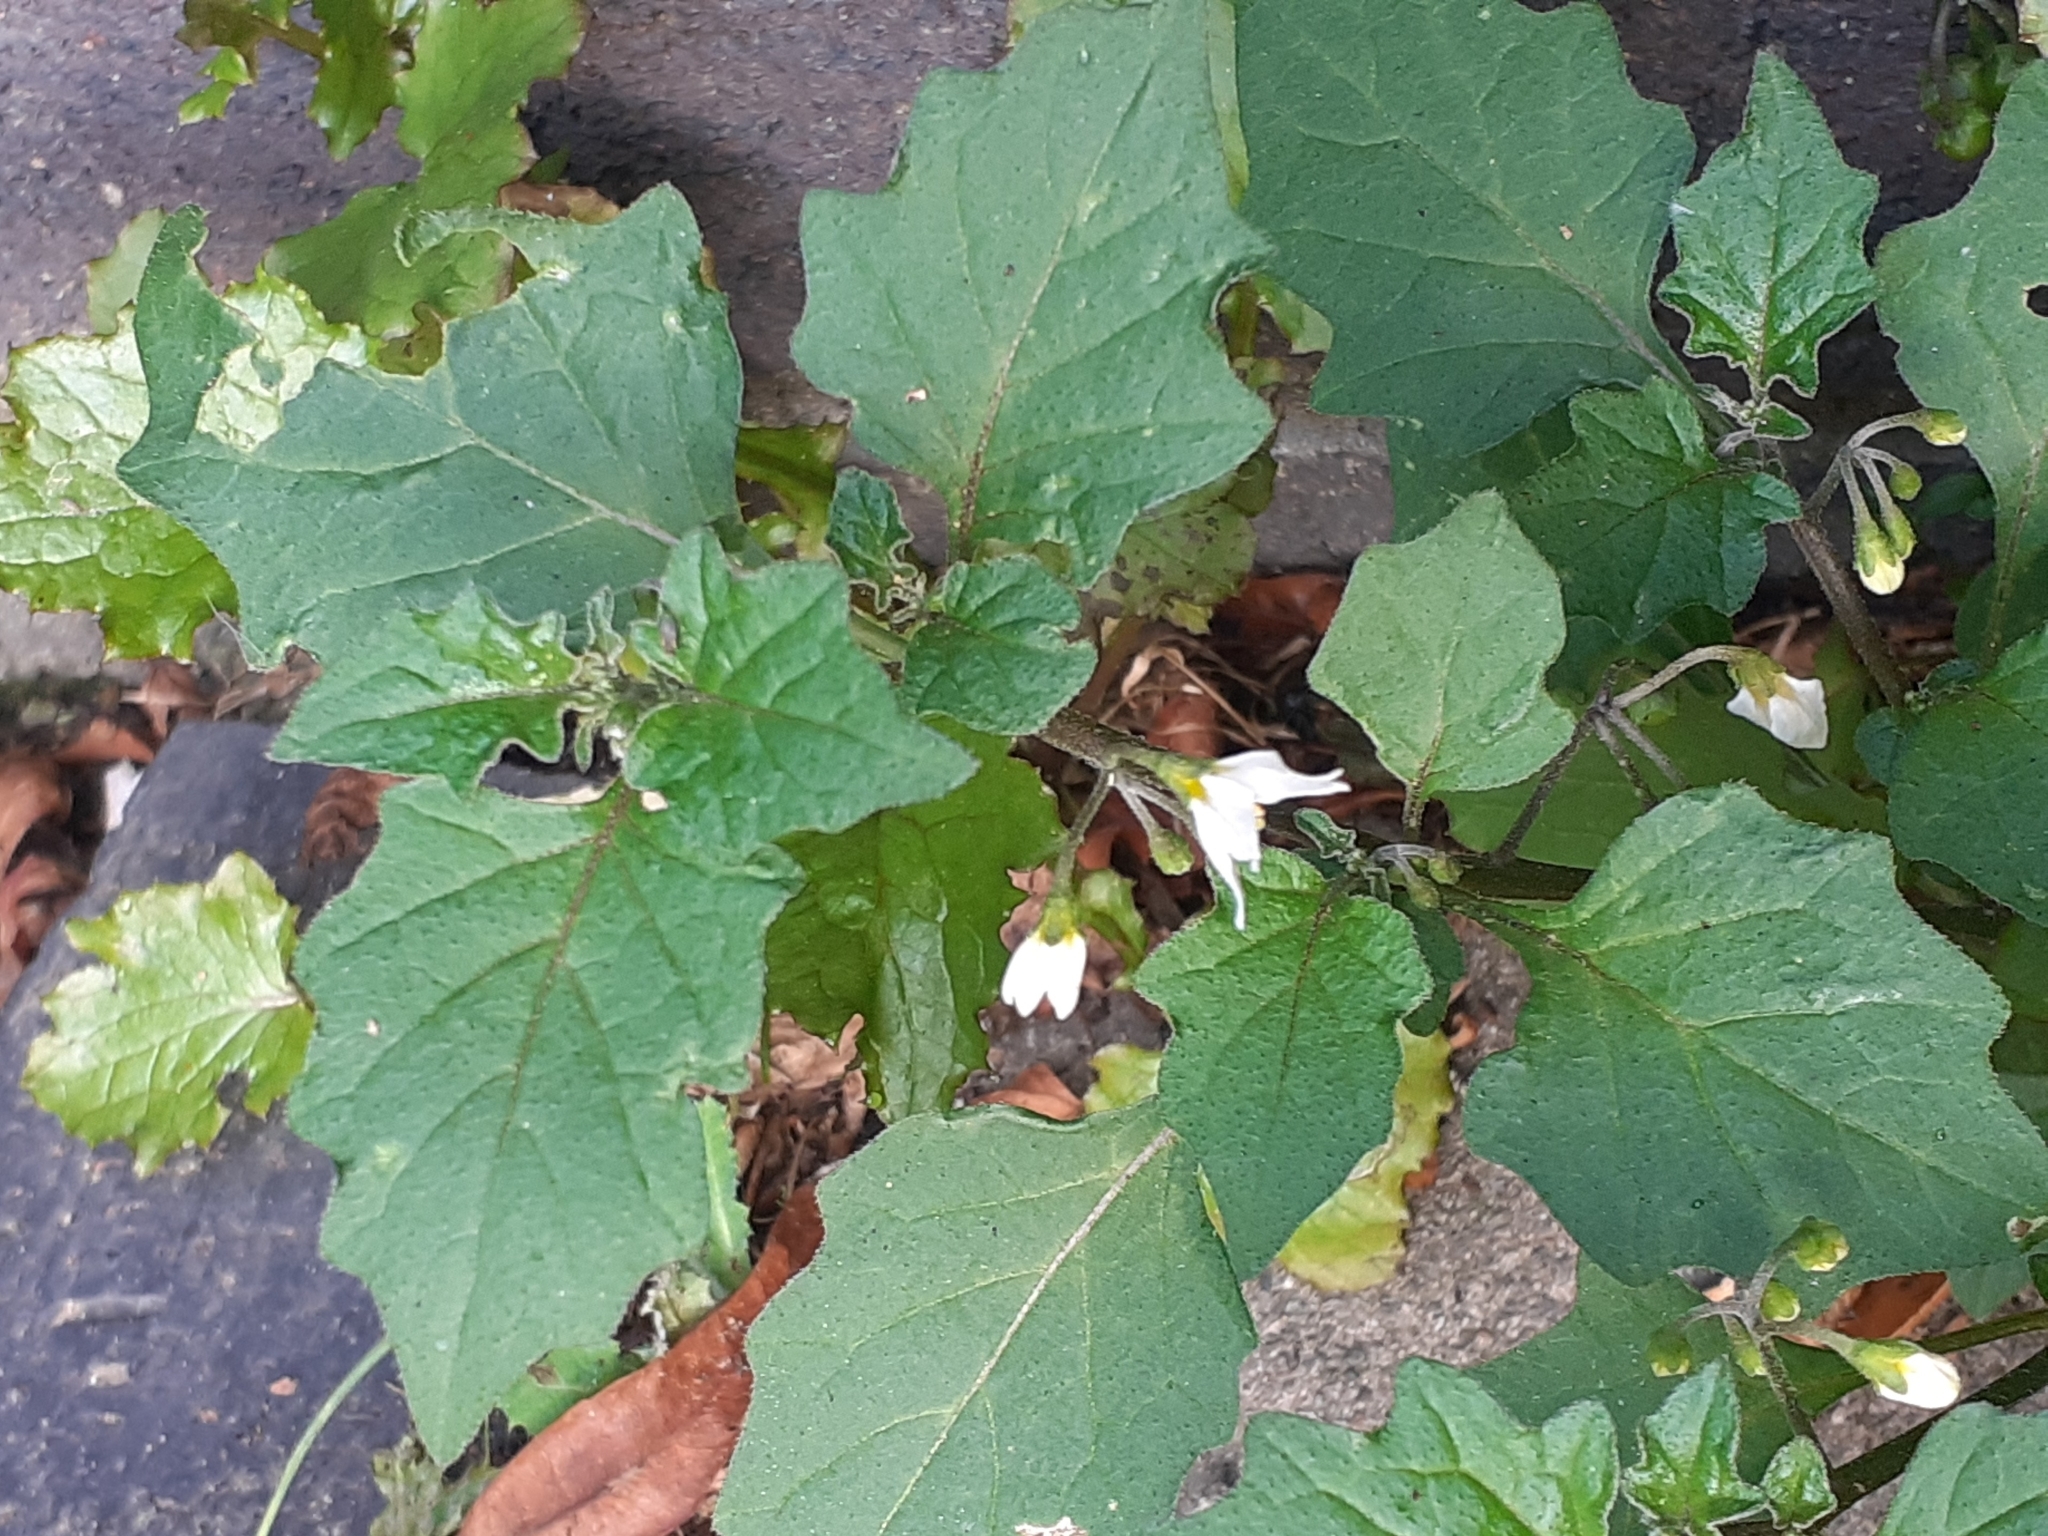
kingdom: Plantae
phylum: Tracheophyta
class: Magnoliopsida
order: Solanales
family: Solanaceae
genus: Solanum
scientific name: Solanum nigrum
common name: Black nightshade
